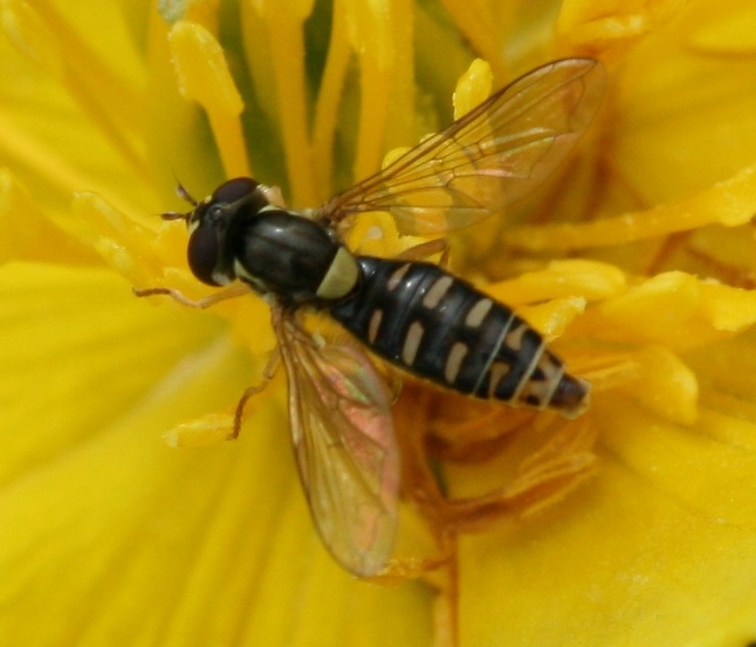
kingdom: Animalia
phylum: Arthropoda
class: Insecta
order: Diptera
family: Syrphidae
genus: Sphaerophoria
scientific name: Sphaerophoria
